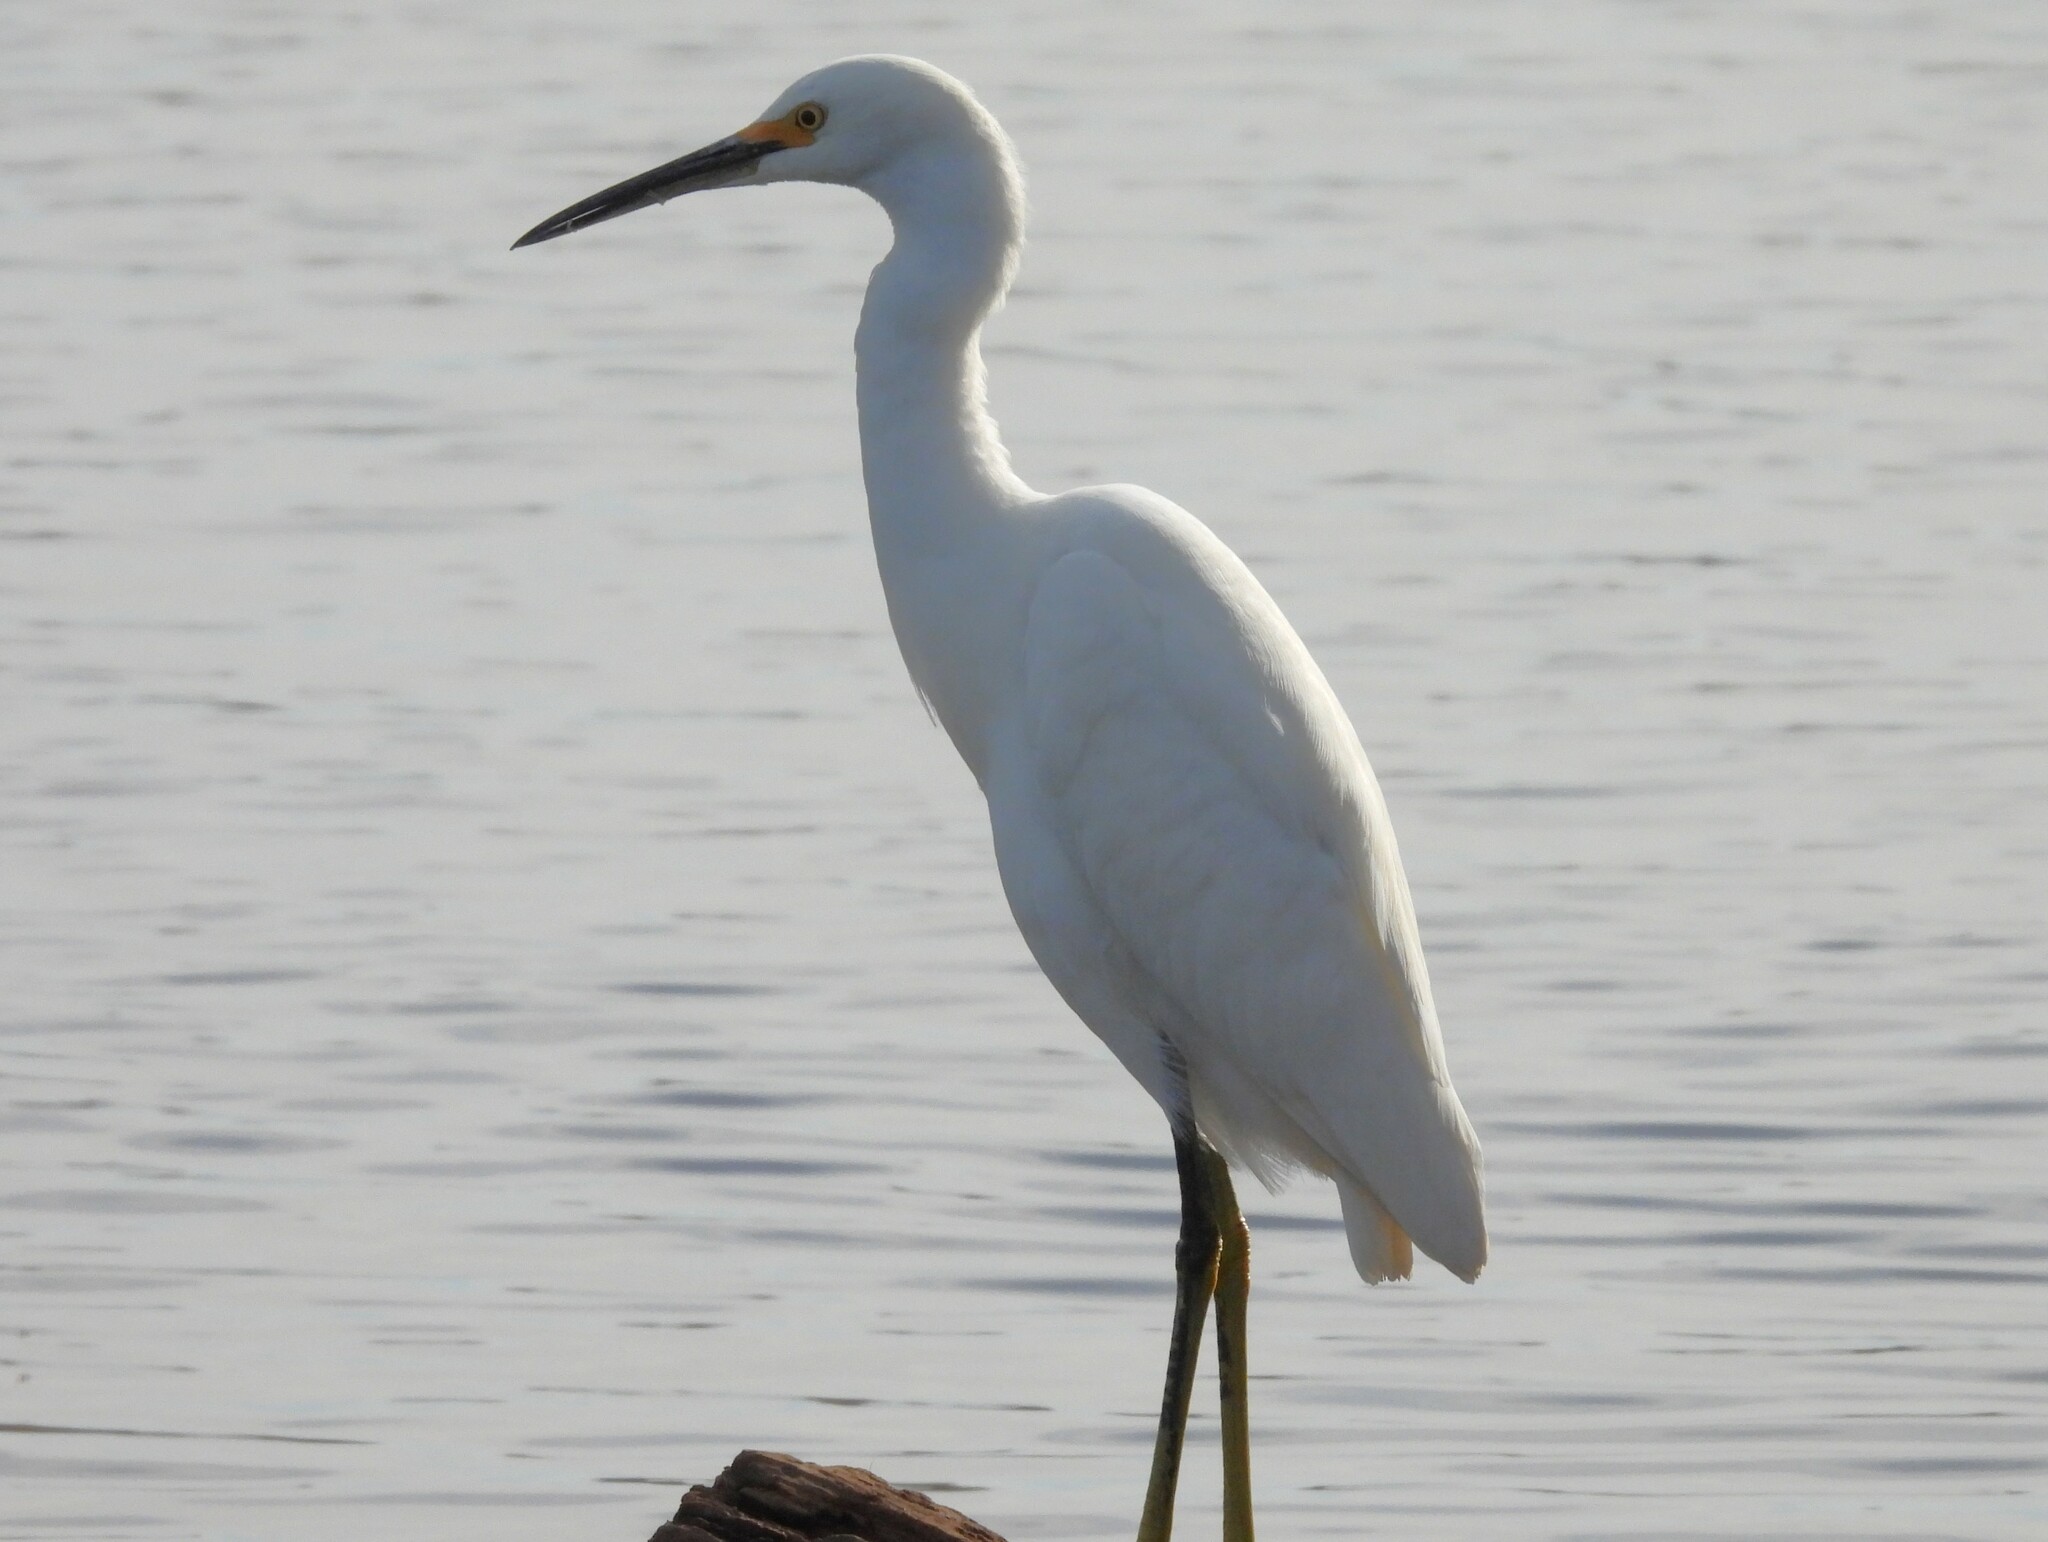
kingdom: Animalia
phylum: Chordata
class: Aves
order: Pelecaniformes
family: Ardeidae
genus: Egretta
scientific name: Egretta thula
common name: Snowy egret
